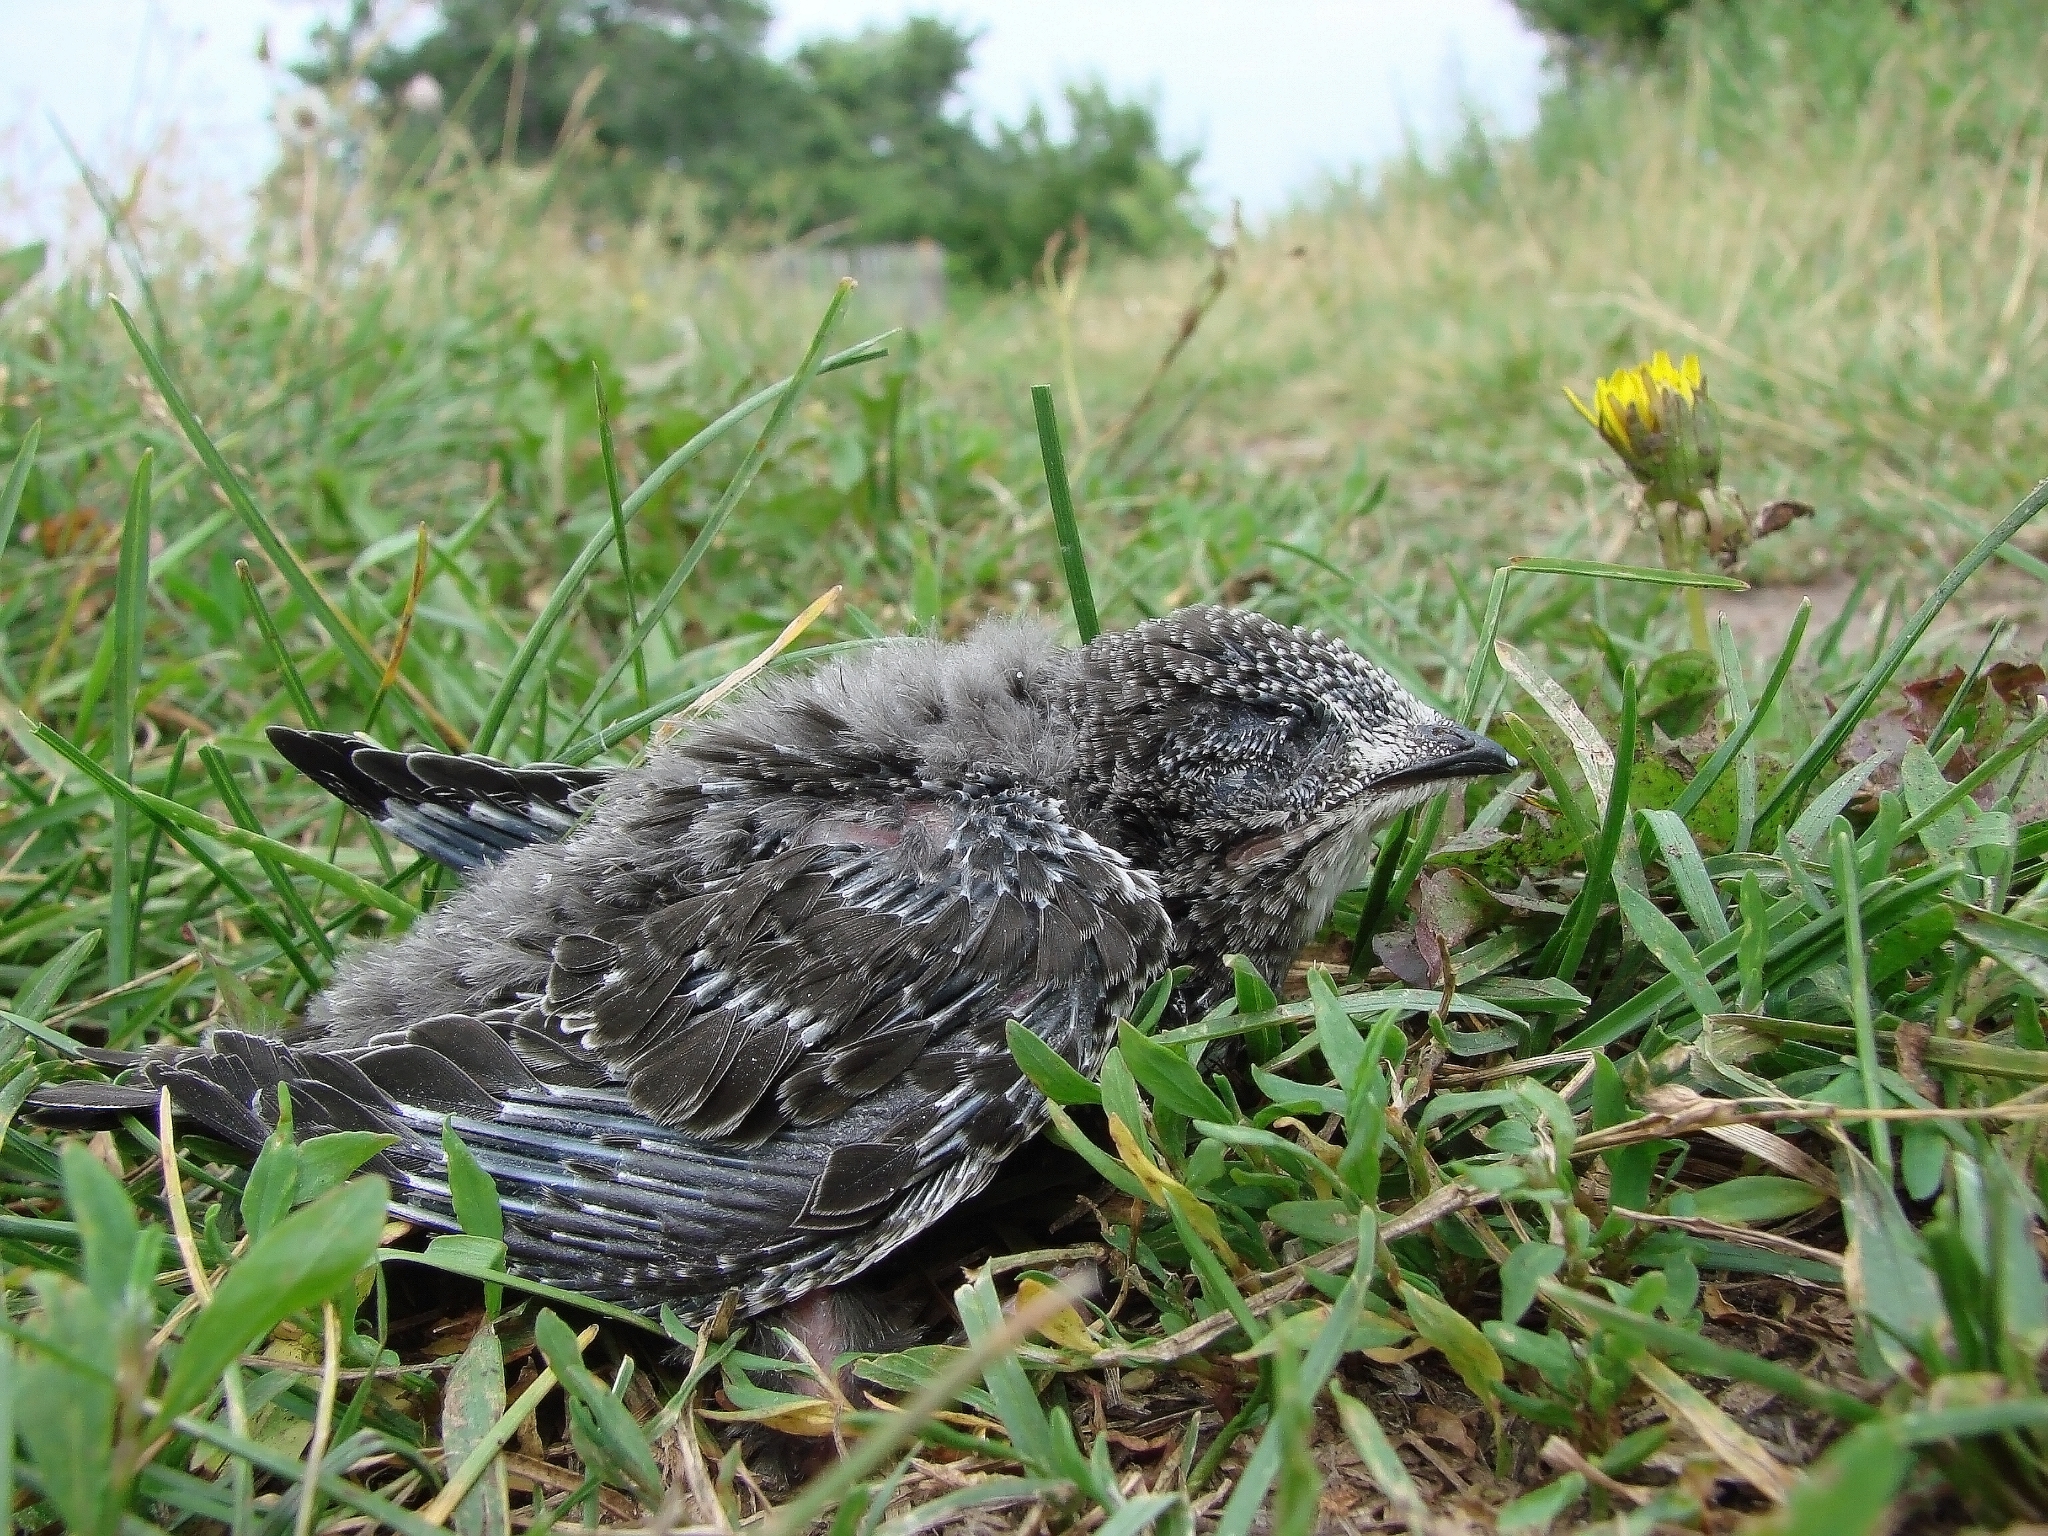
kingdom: Animalia
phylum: Chordata
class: Aves
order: Apodiformes
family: Apodidae
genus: Apus
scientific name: Apus apus
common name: Common swift
